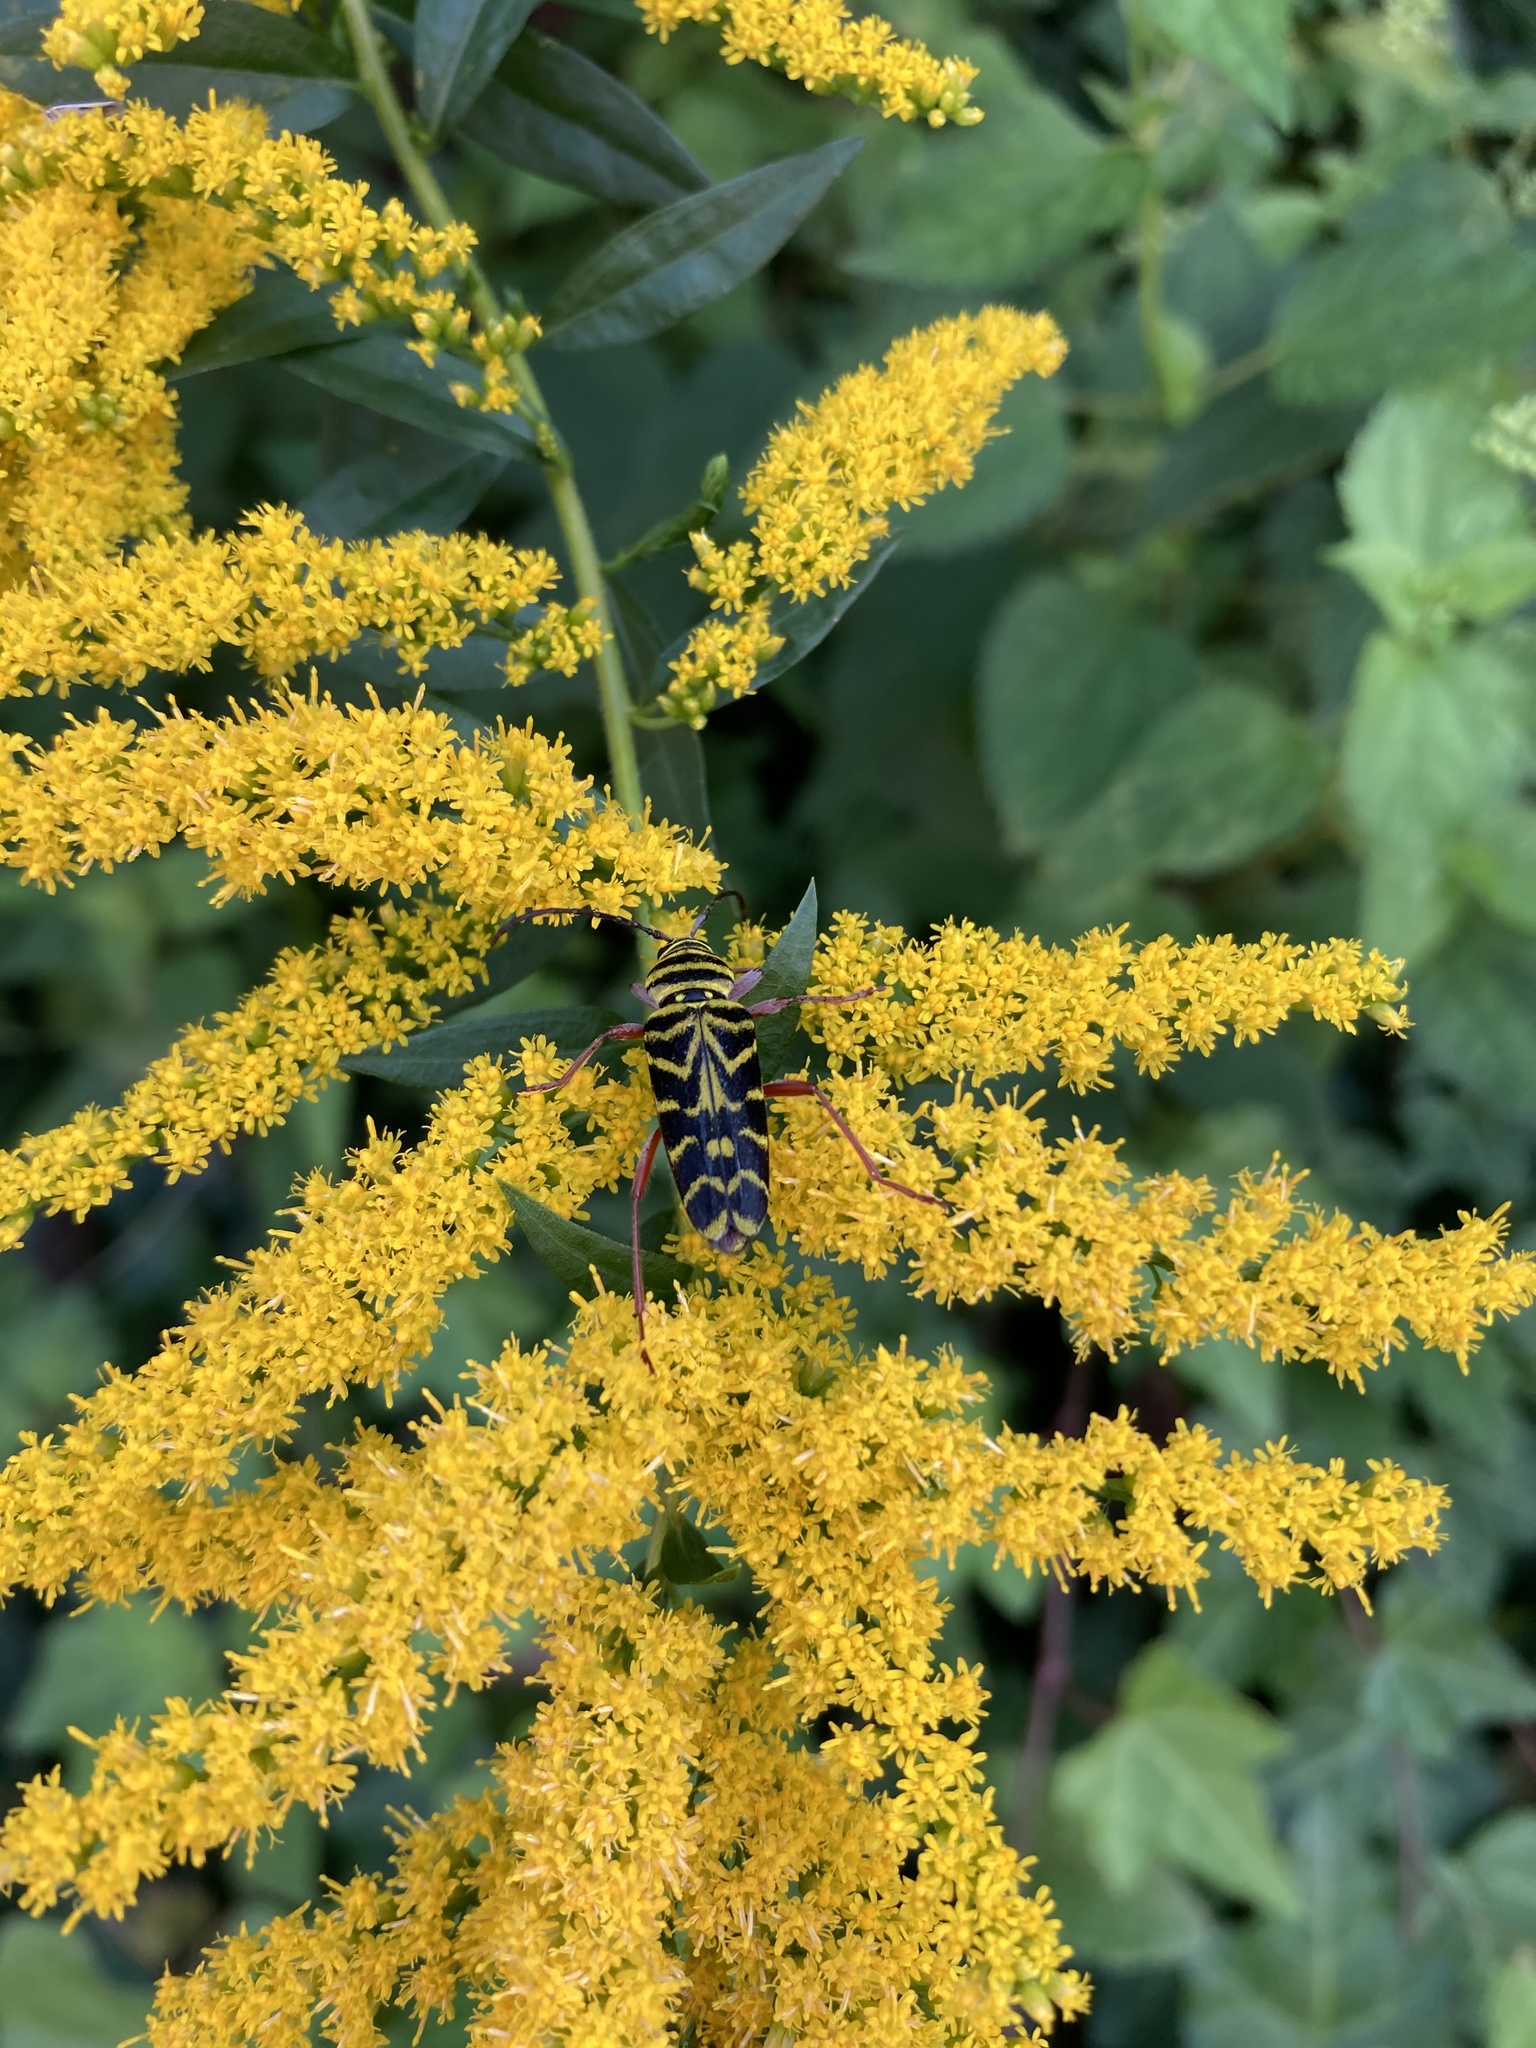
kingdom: Animalia
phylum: Arthropoda
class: Insecta
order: Coleoptera
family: Cerambycidae
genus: Megacyllene
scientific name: Megacyllene robiniae
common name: Locust borer
